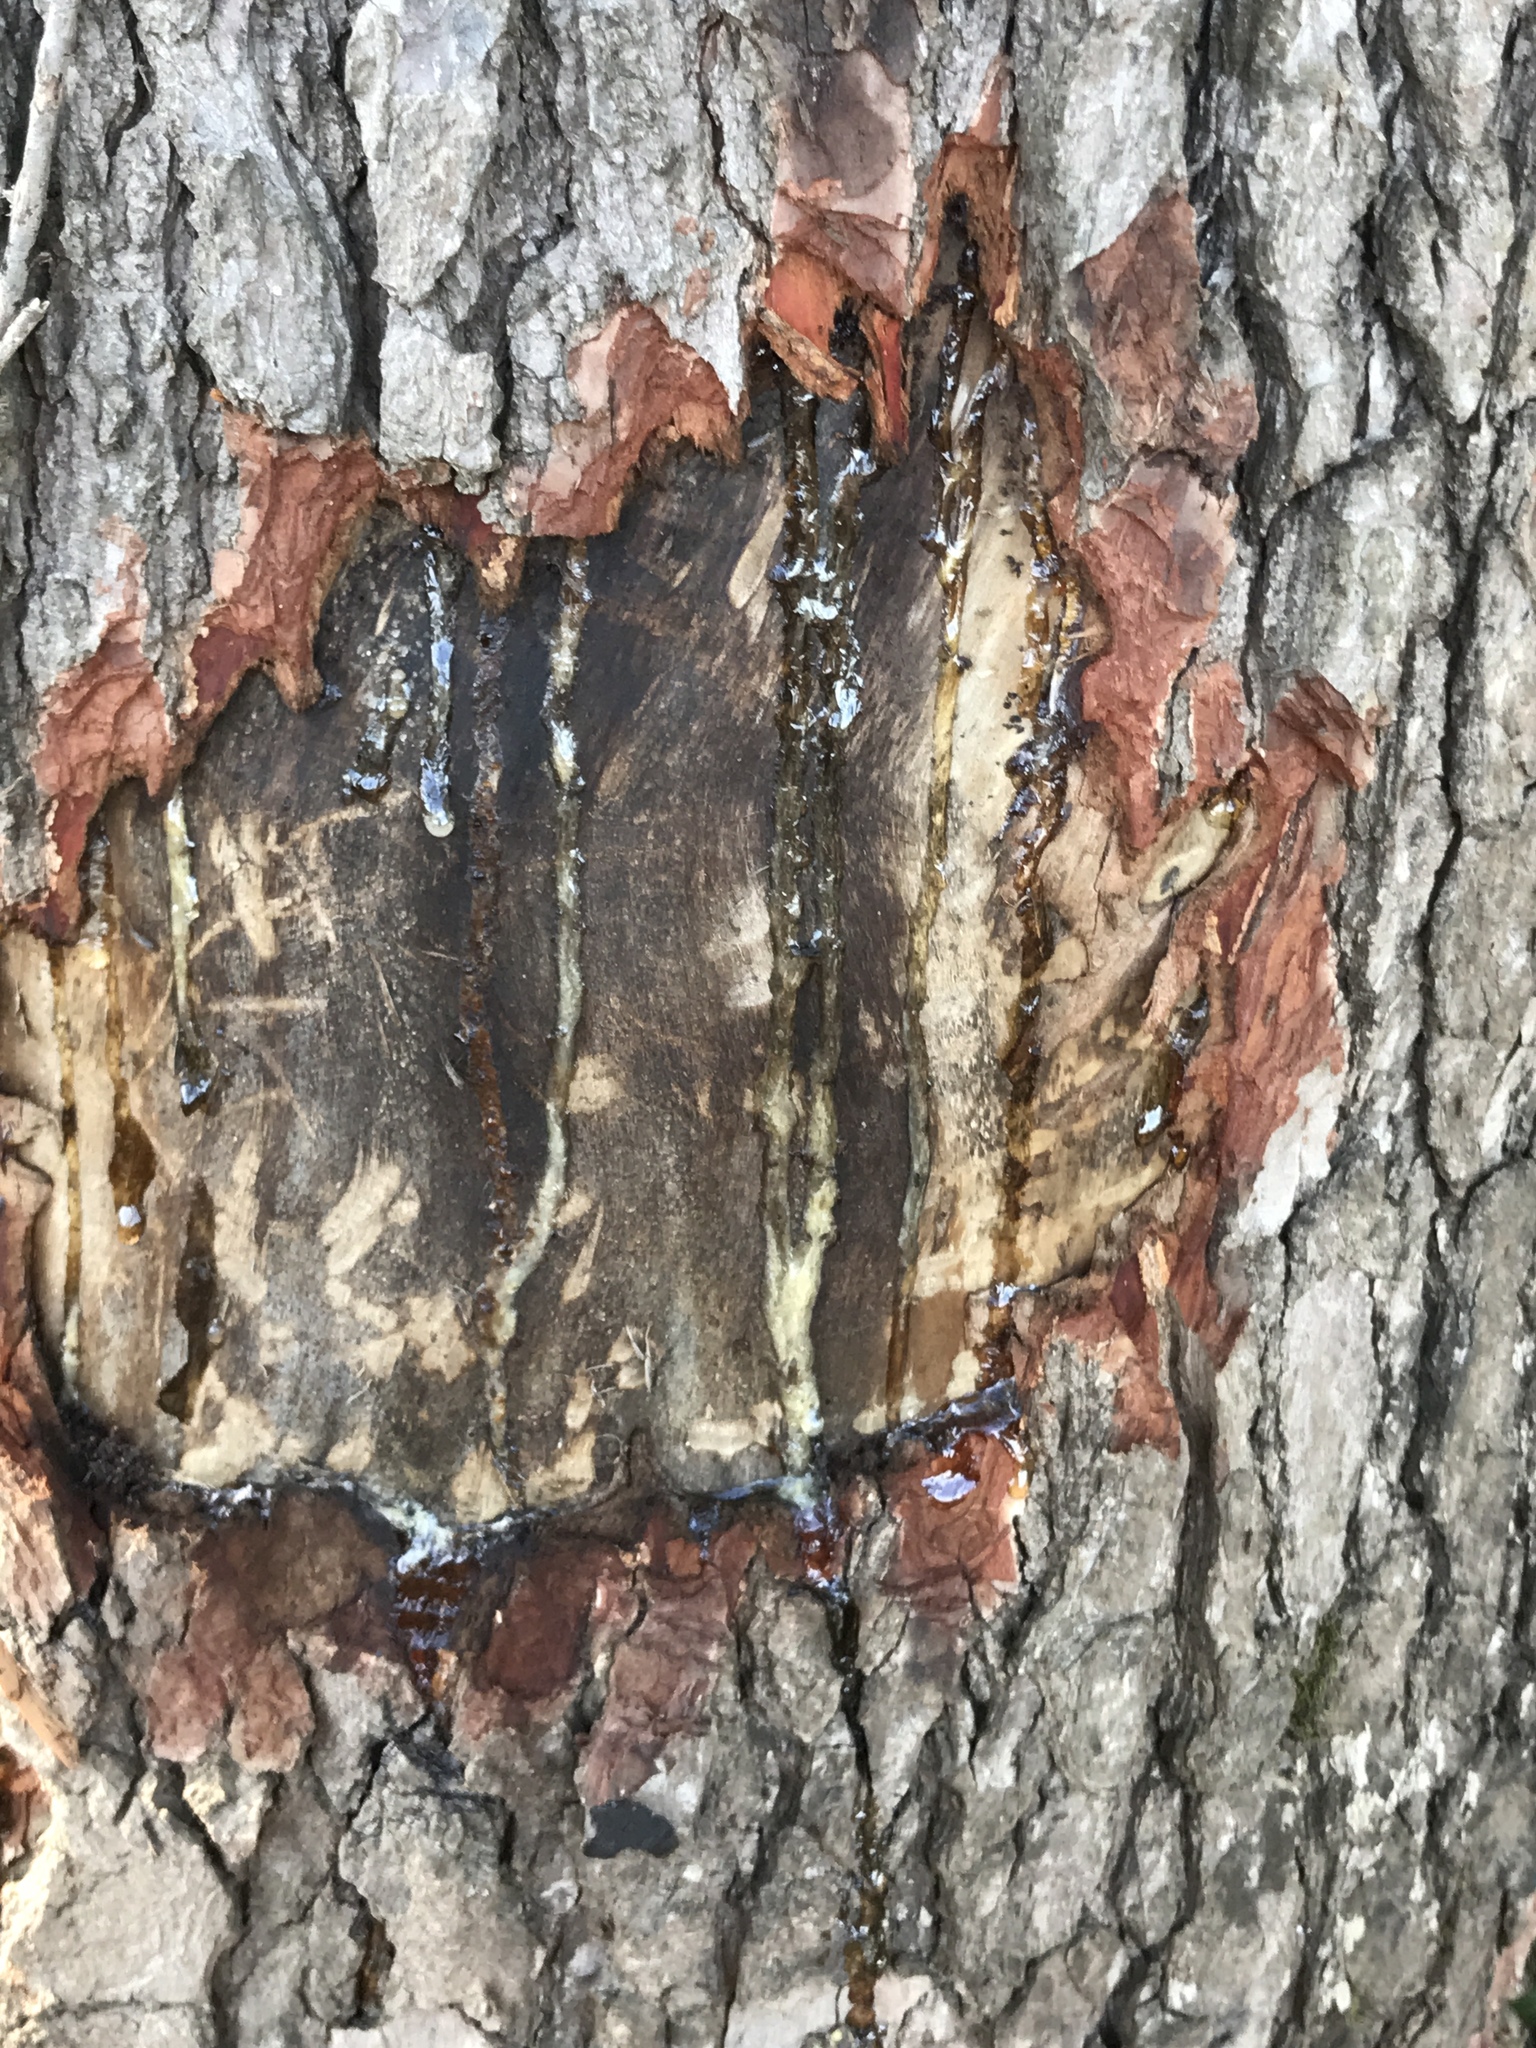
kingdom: Plantae
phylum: Tracheophyta
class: Magnoliopsida
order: Saxifragales
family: Altingiaceae
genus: Liquidambar
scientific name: Liquidambar styraciflua
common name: Sweet gum
